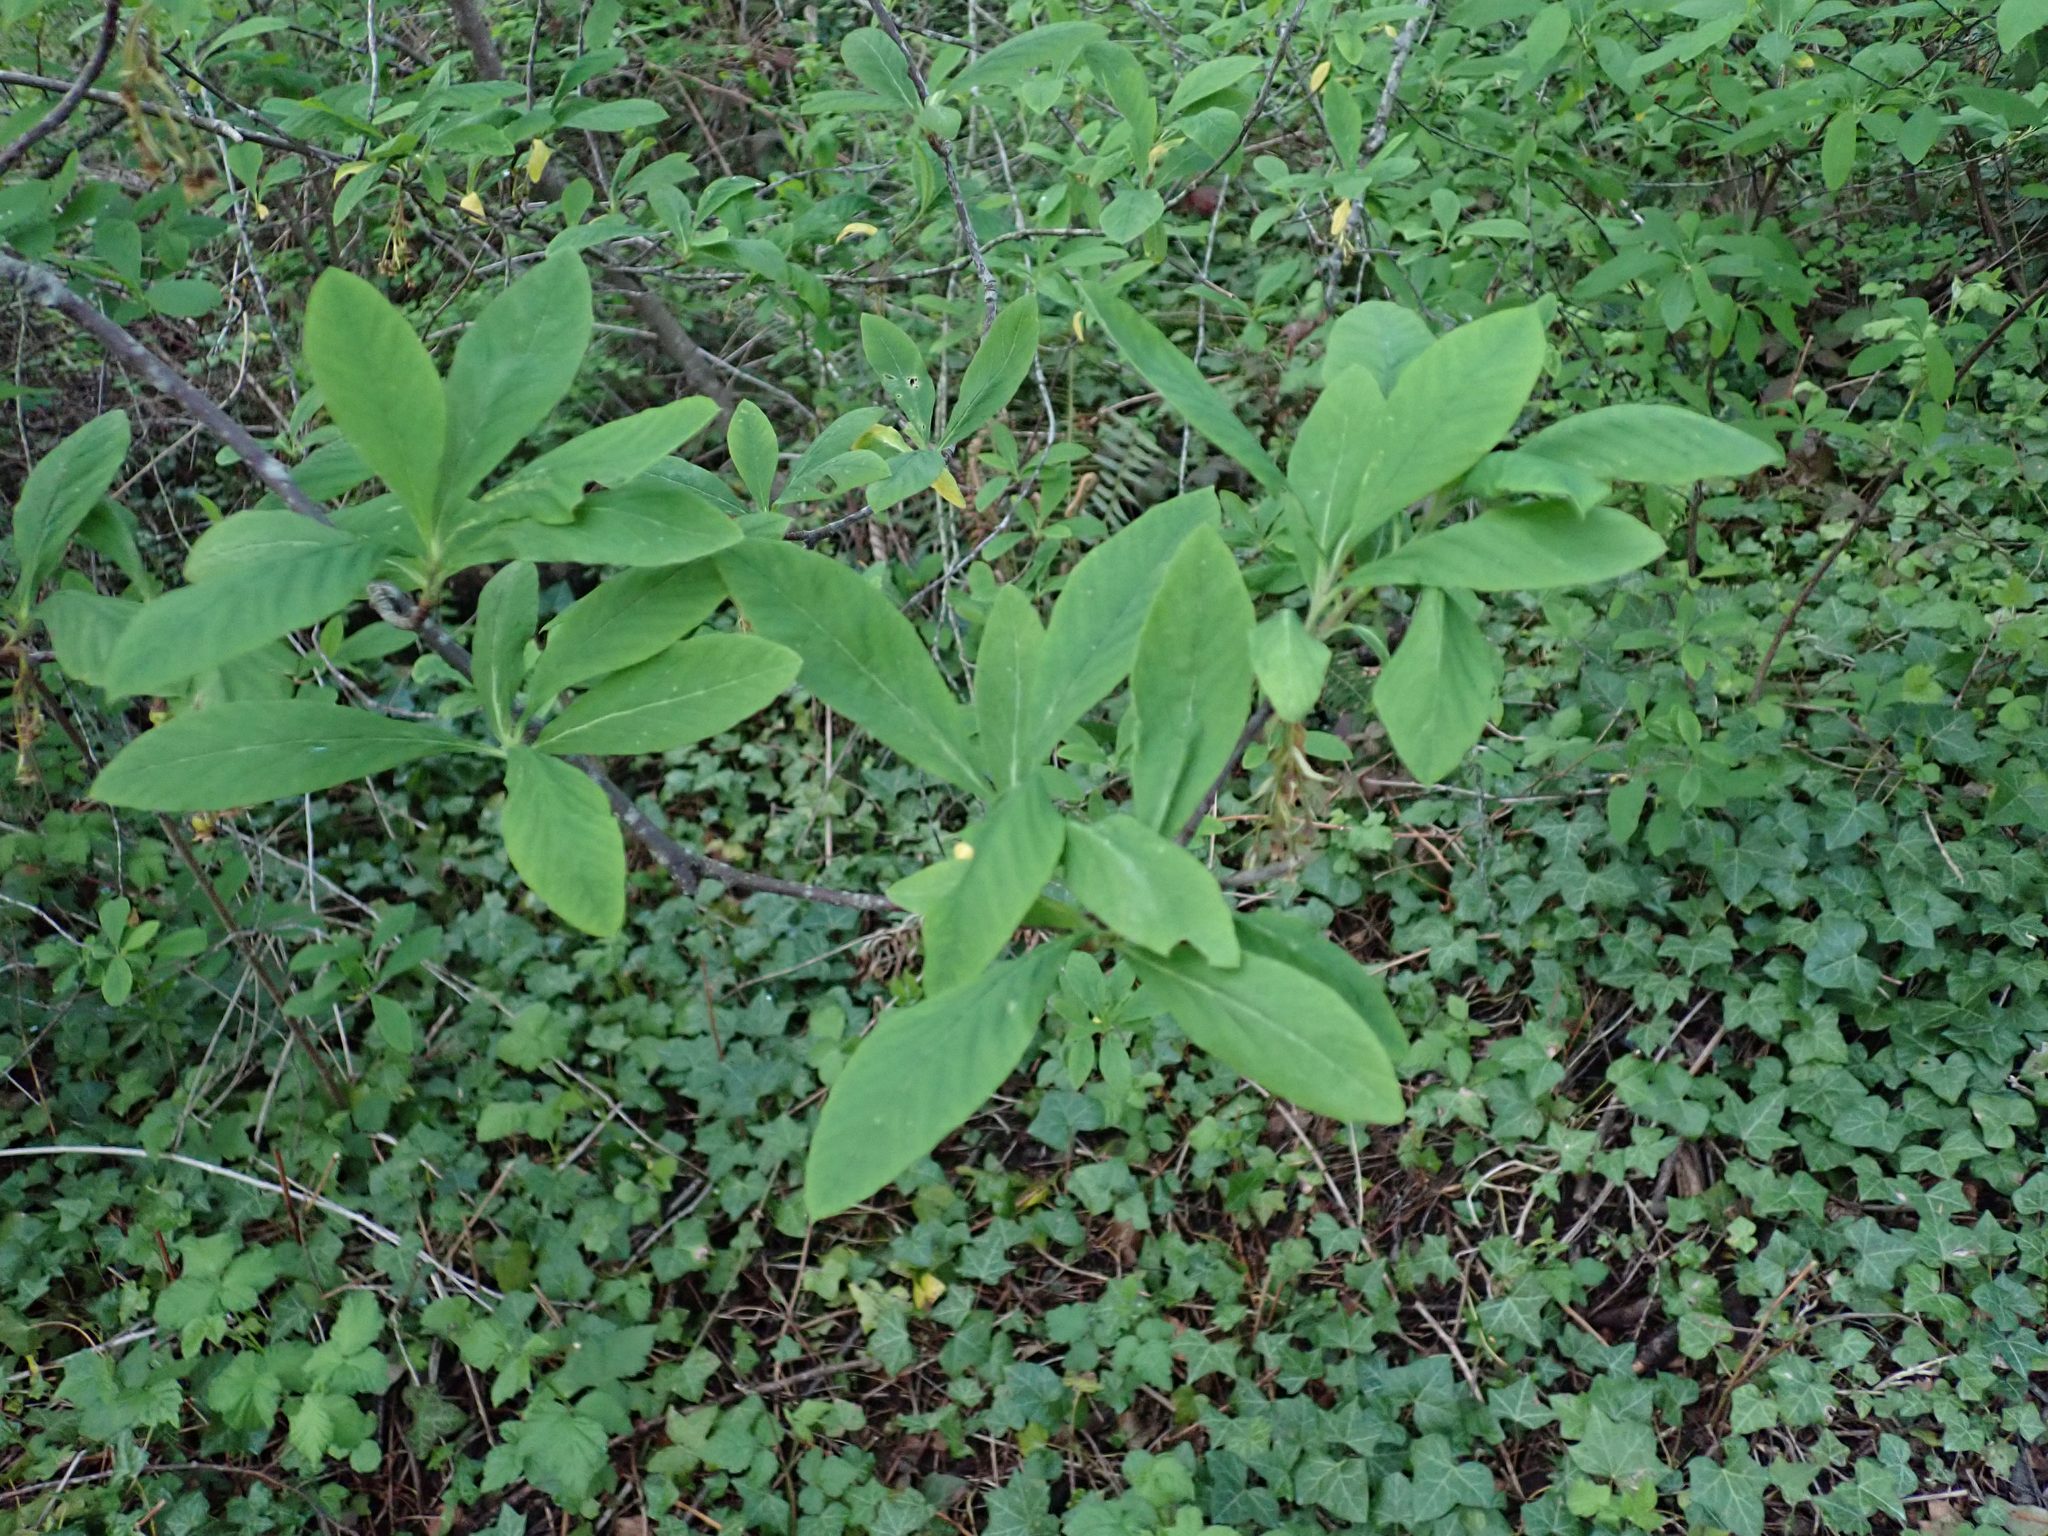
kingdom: Plantae
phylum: Tracheophyta
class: Magnoliopsida
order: Rosales
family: Rosaceae
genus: Oemleria
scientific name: Oemleria cerasiformis
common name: Osoberry
